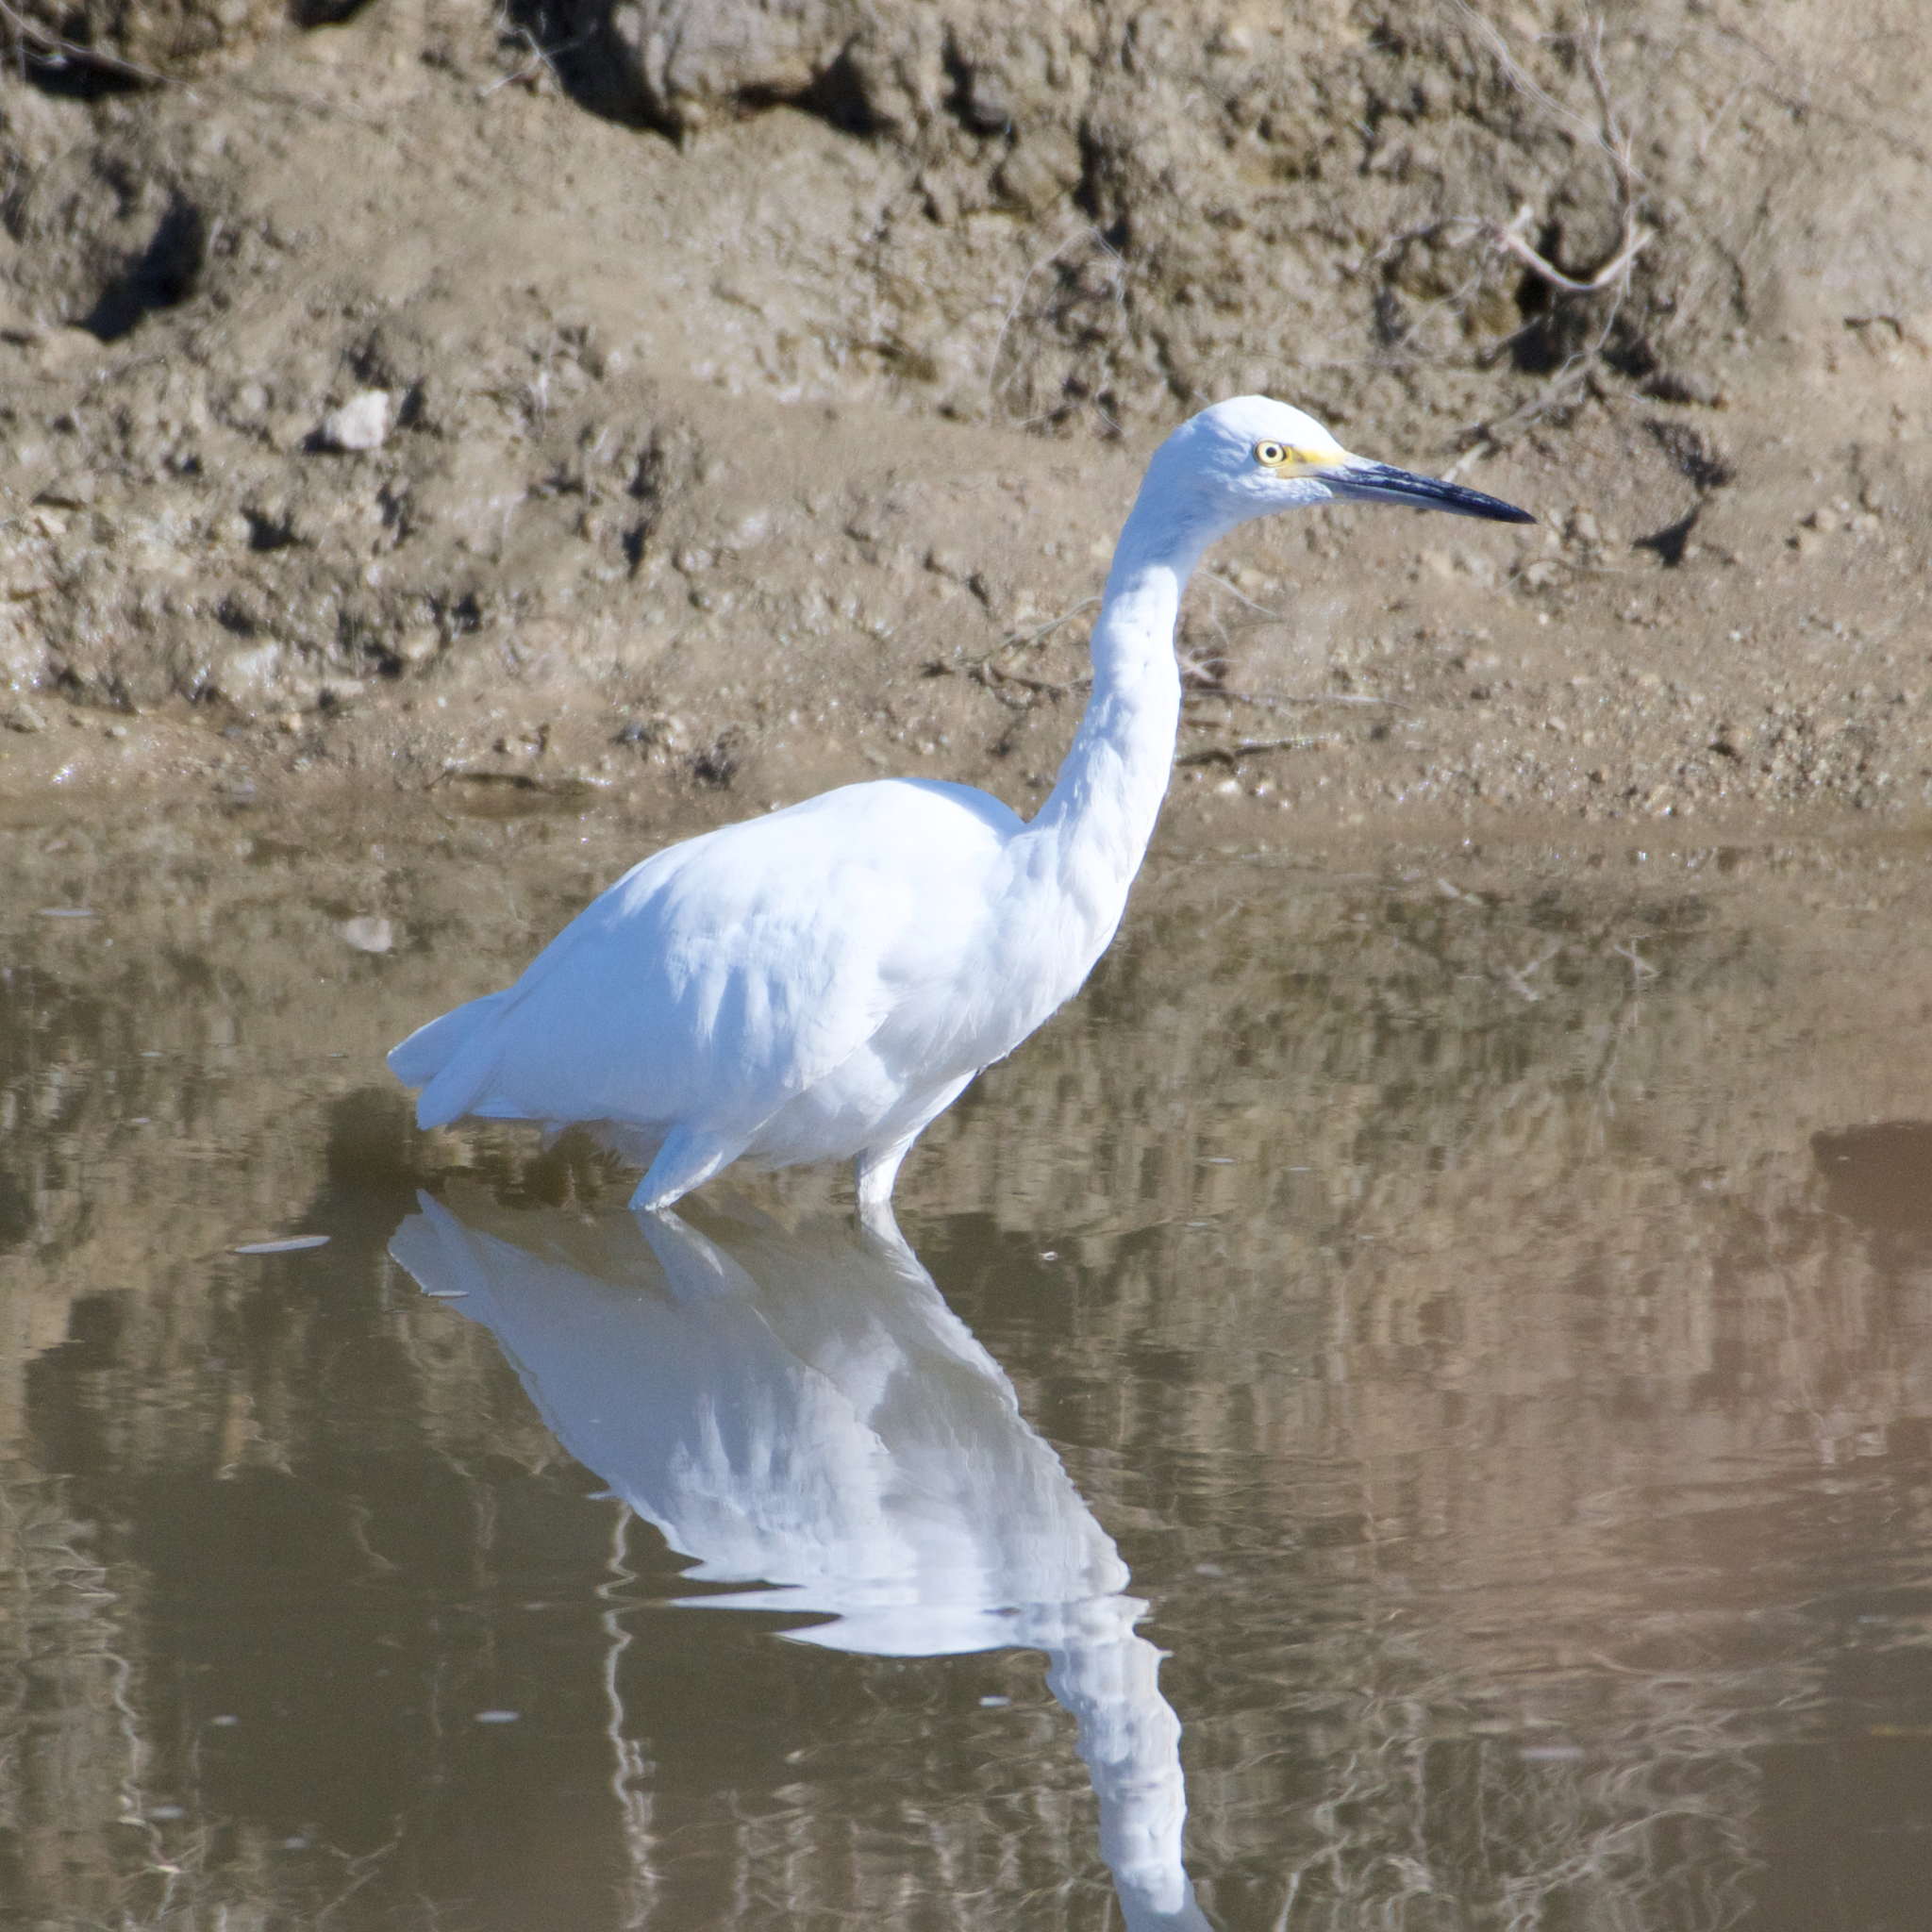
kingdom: Animalia
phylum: Chordata
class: Aves
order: Pelecaniformes
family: Ardeidae
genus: Egretta
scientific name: Egretta thula
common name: Snowy egret
